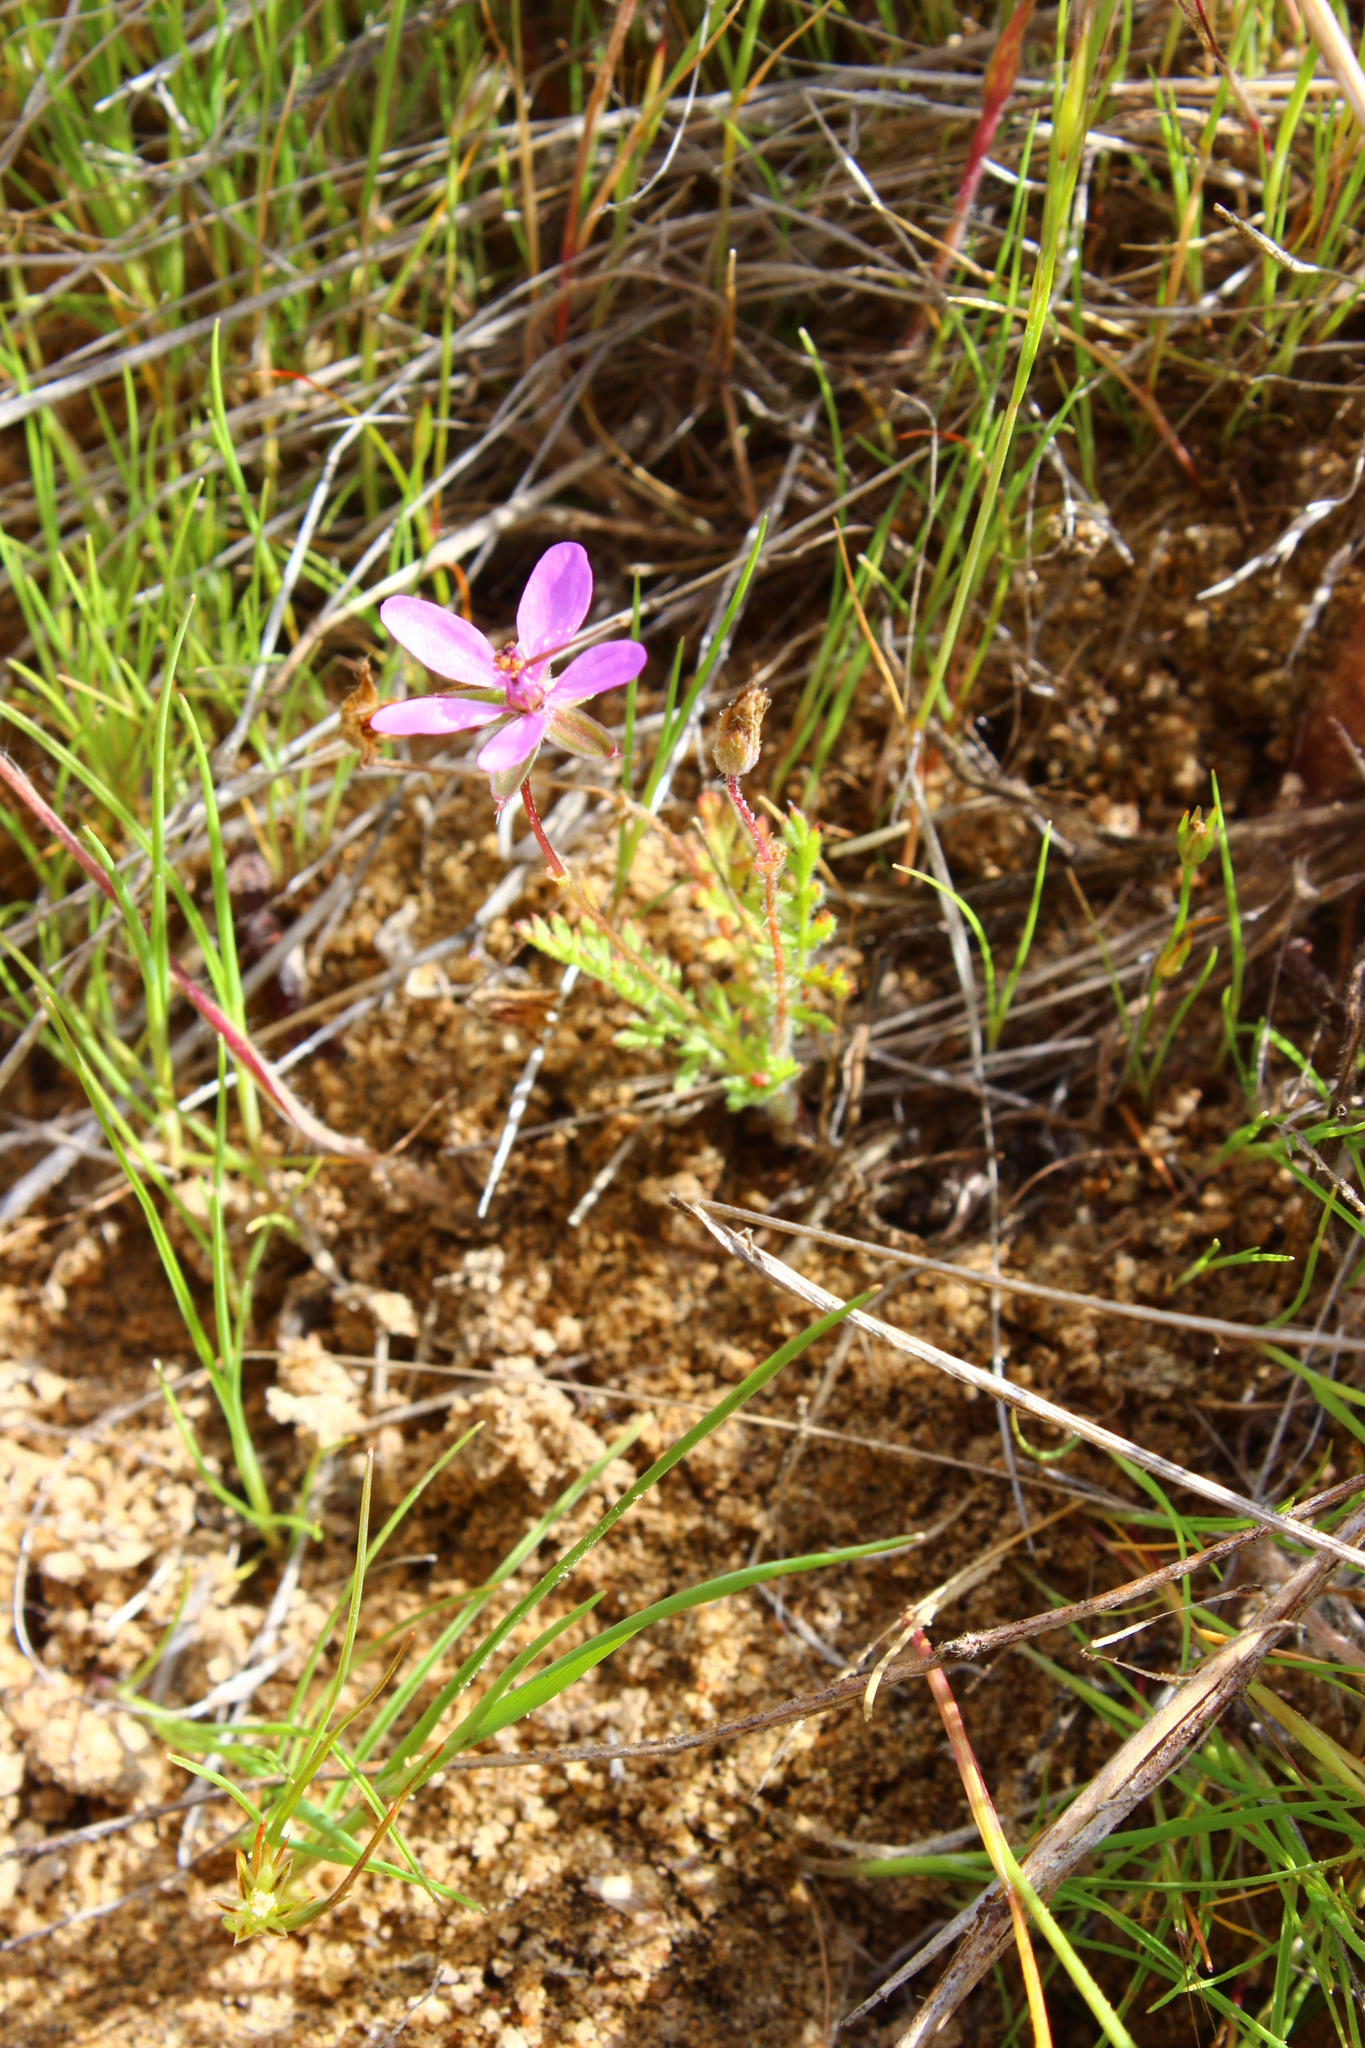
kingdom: Plantae
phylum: Tracheophyta
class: Magnoliopsida
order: Geraniales
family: Geraniaceae
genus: Erodium
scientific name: Erodium cicutarium
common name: Common stork's-bill
